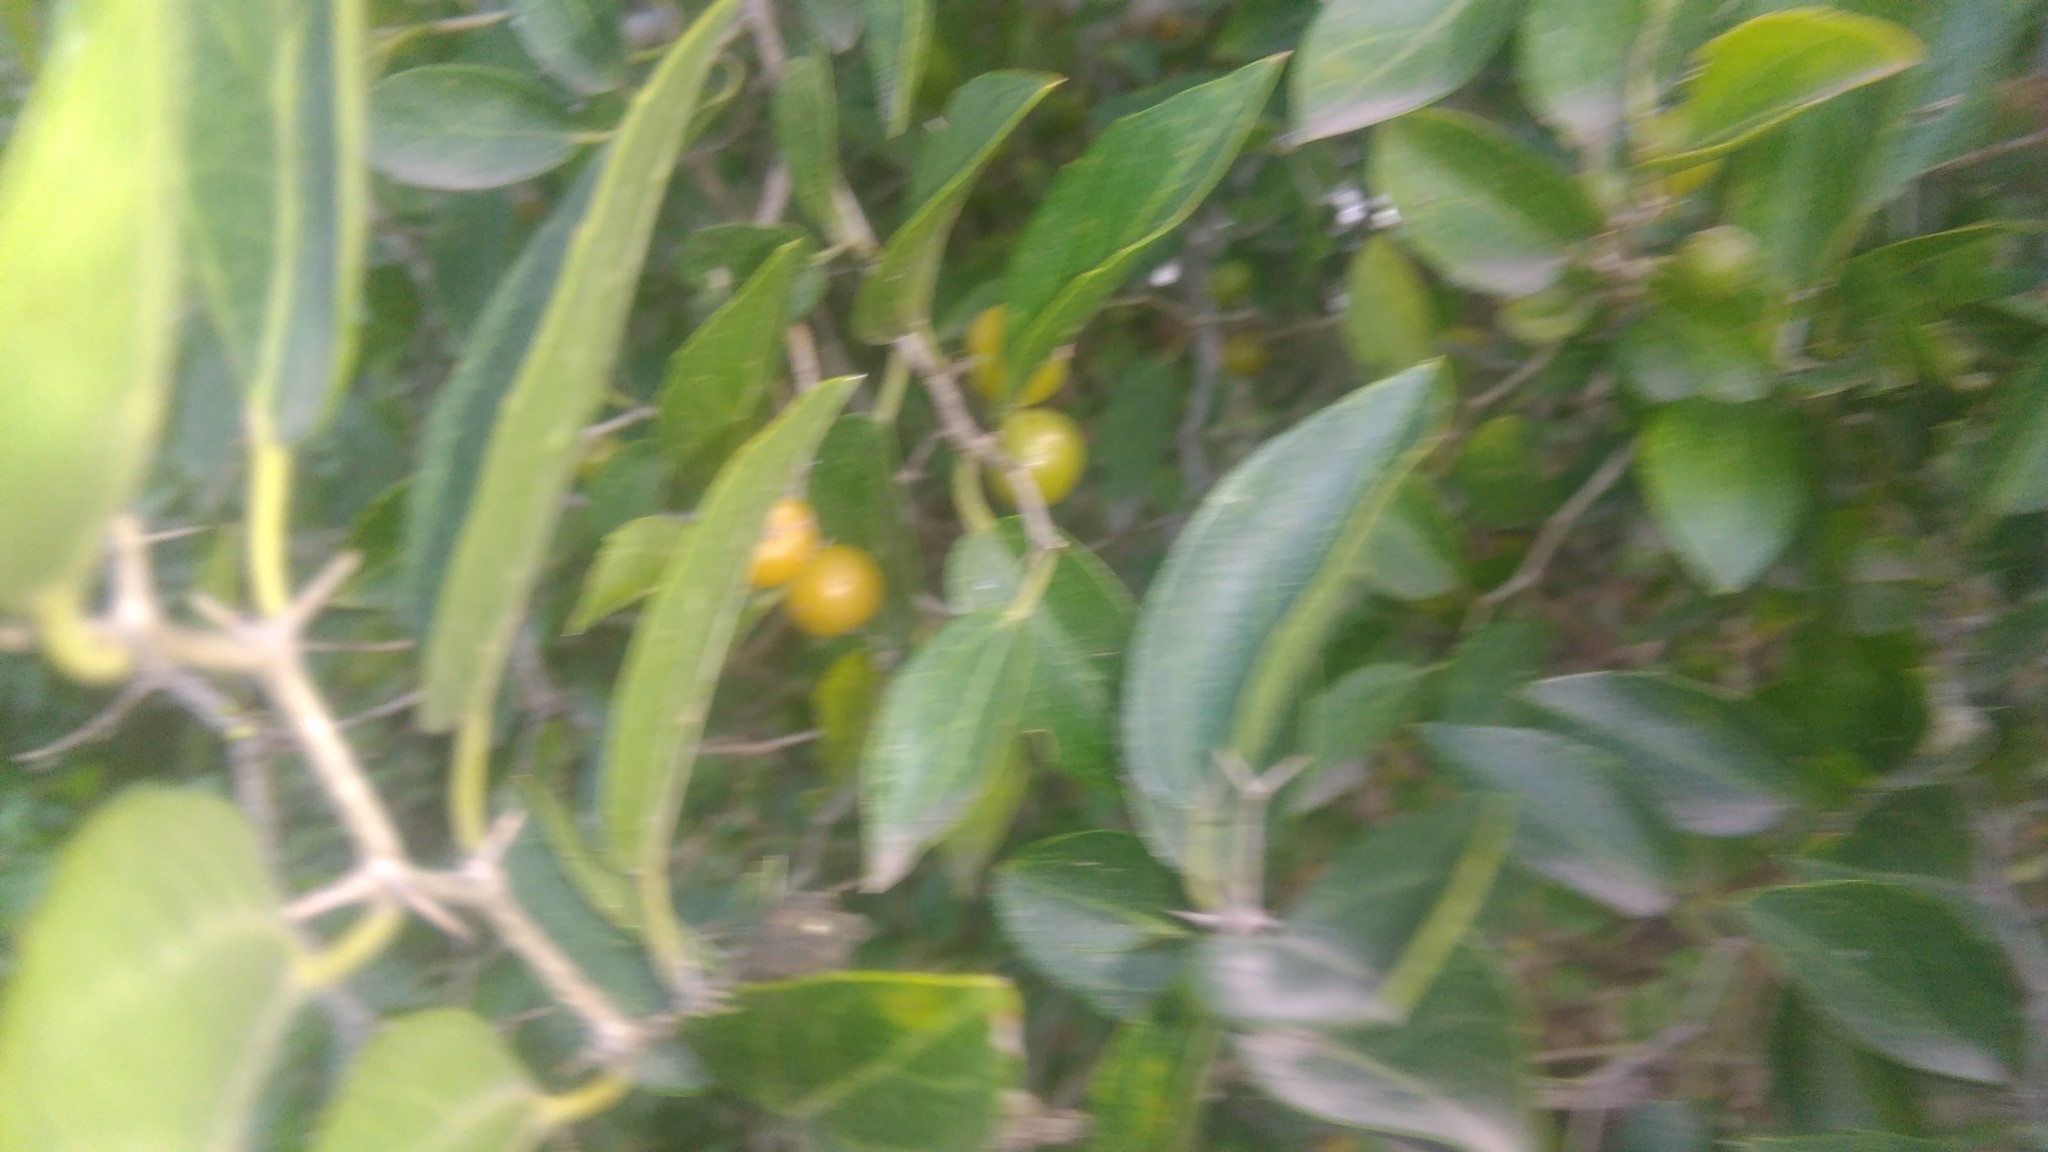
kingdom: Plantae
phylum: Tracheophyta
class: Magnoliopsida
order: Rosales
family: Cannabaceae
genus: Celtis
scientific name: Celtis tala
